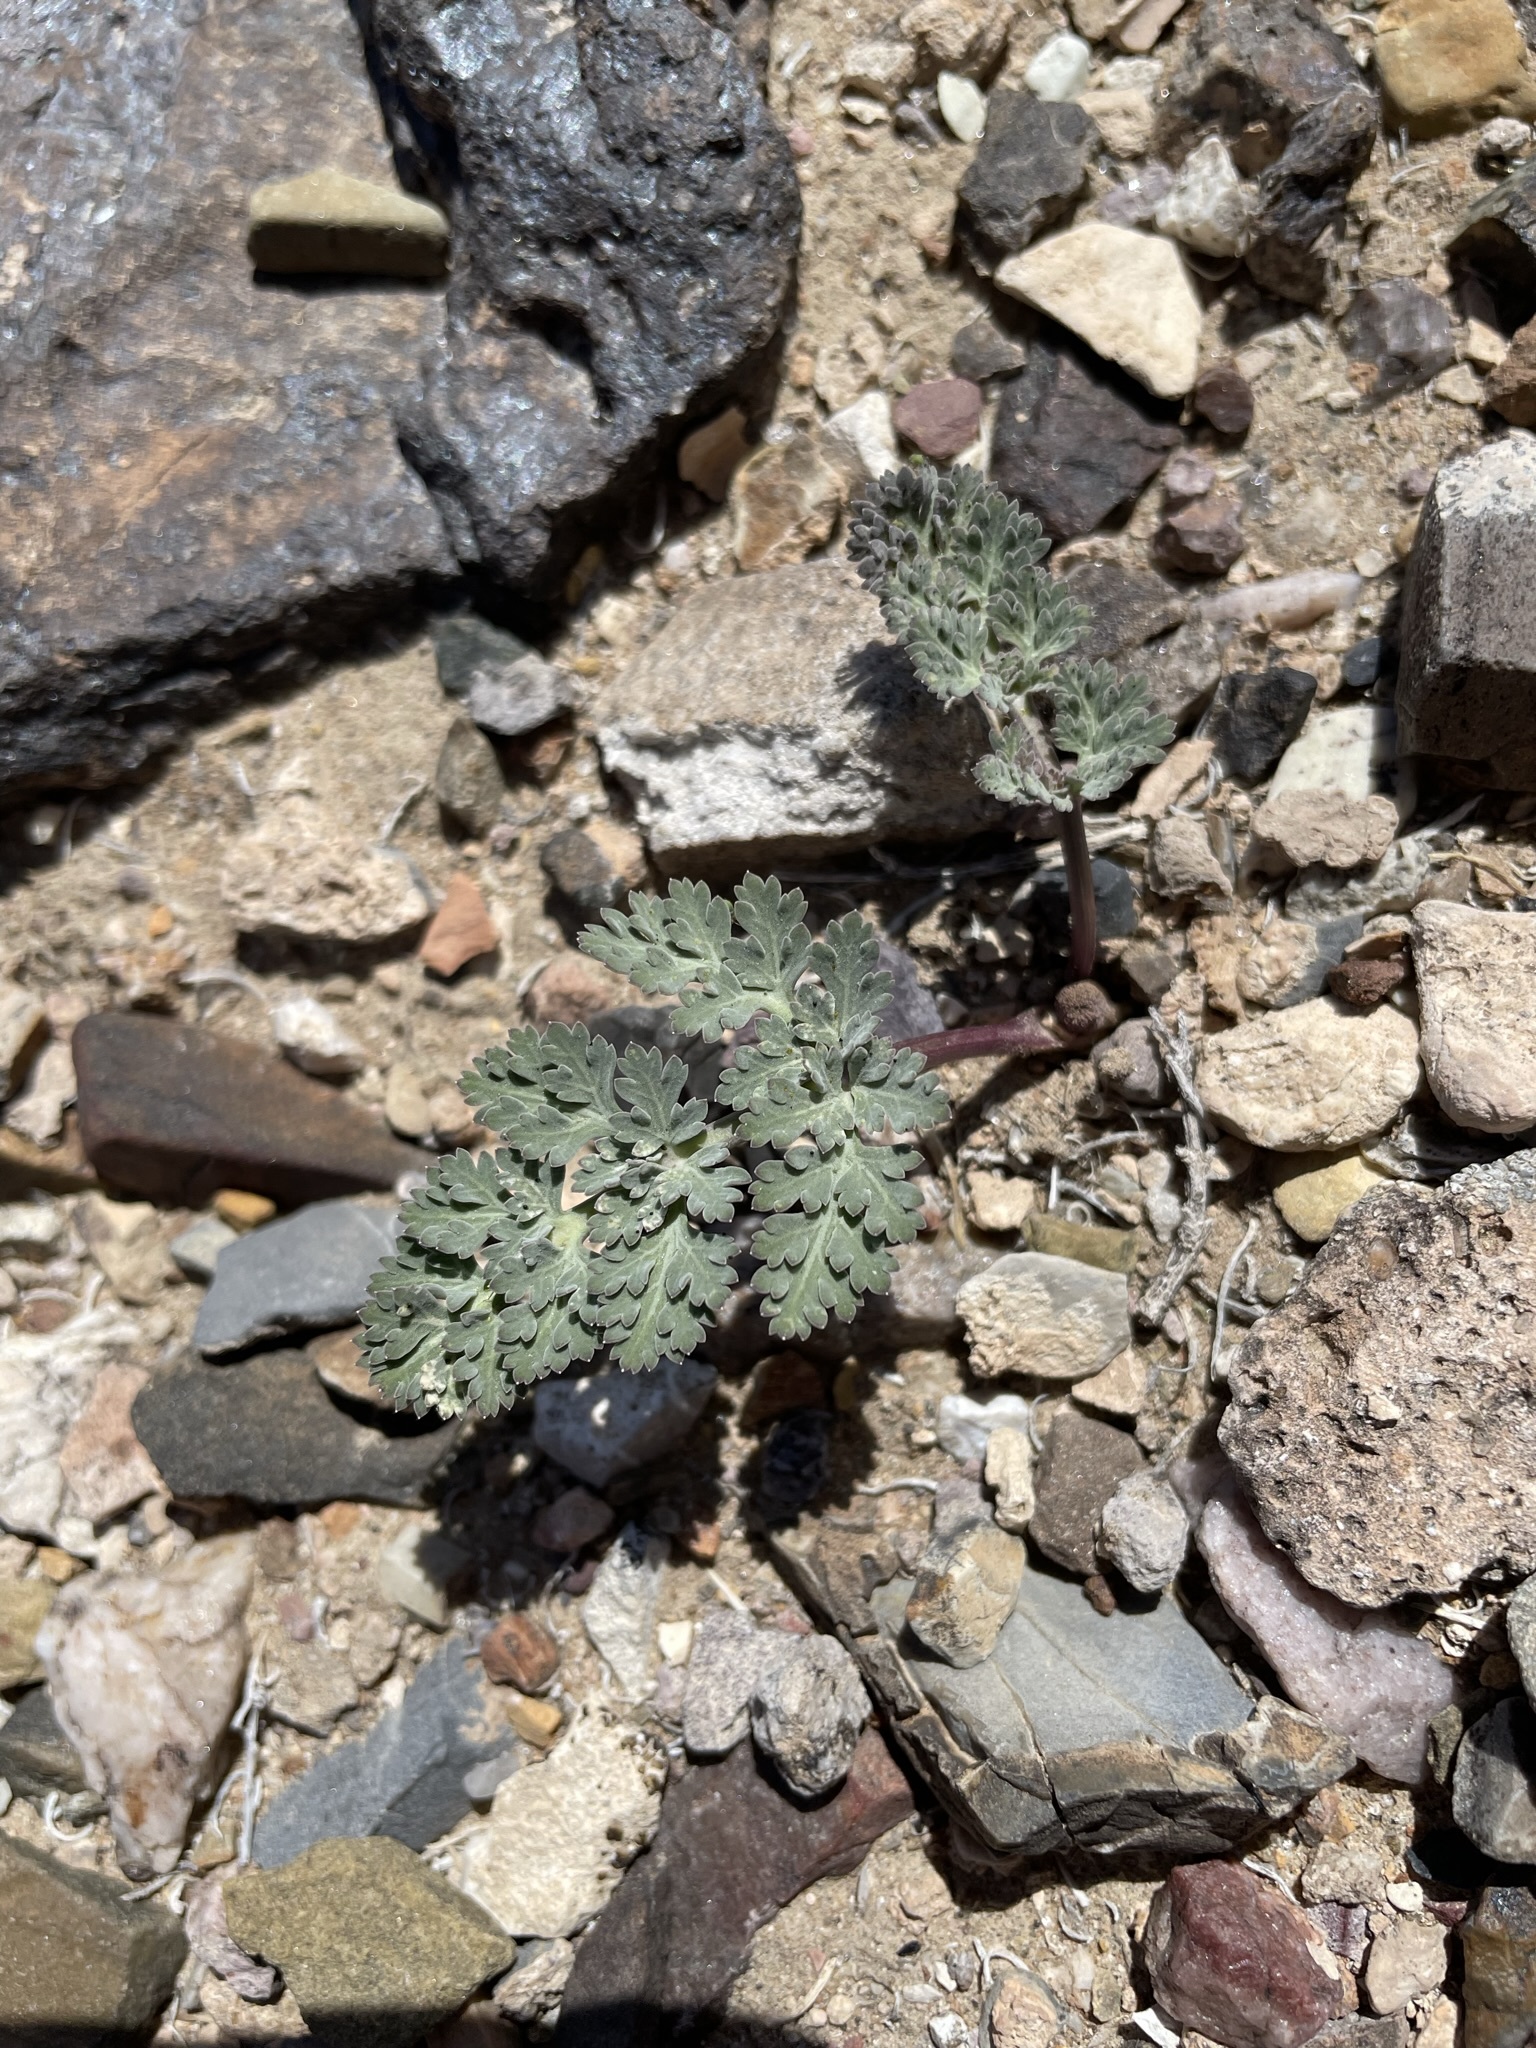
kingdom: Plantae
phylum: Tracheophyta
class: Magnoliopsida
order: Apiales
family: Apiaceae
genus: Cymopterus
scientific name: Cymopterus globosus
